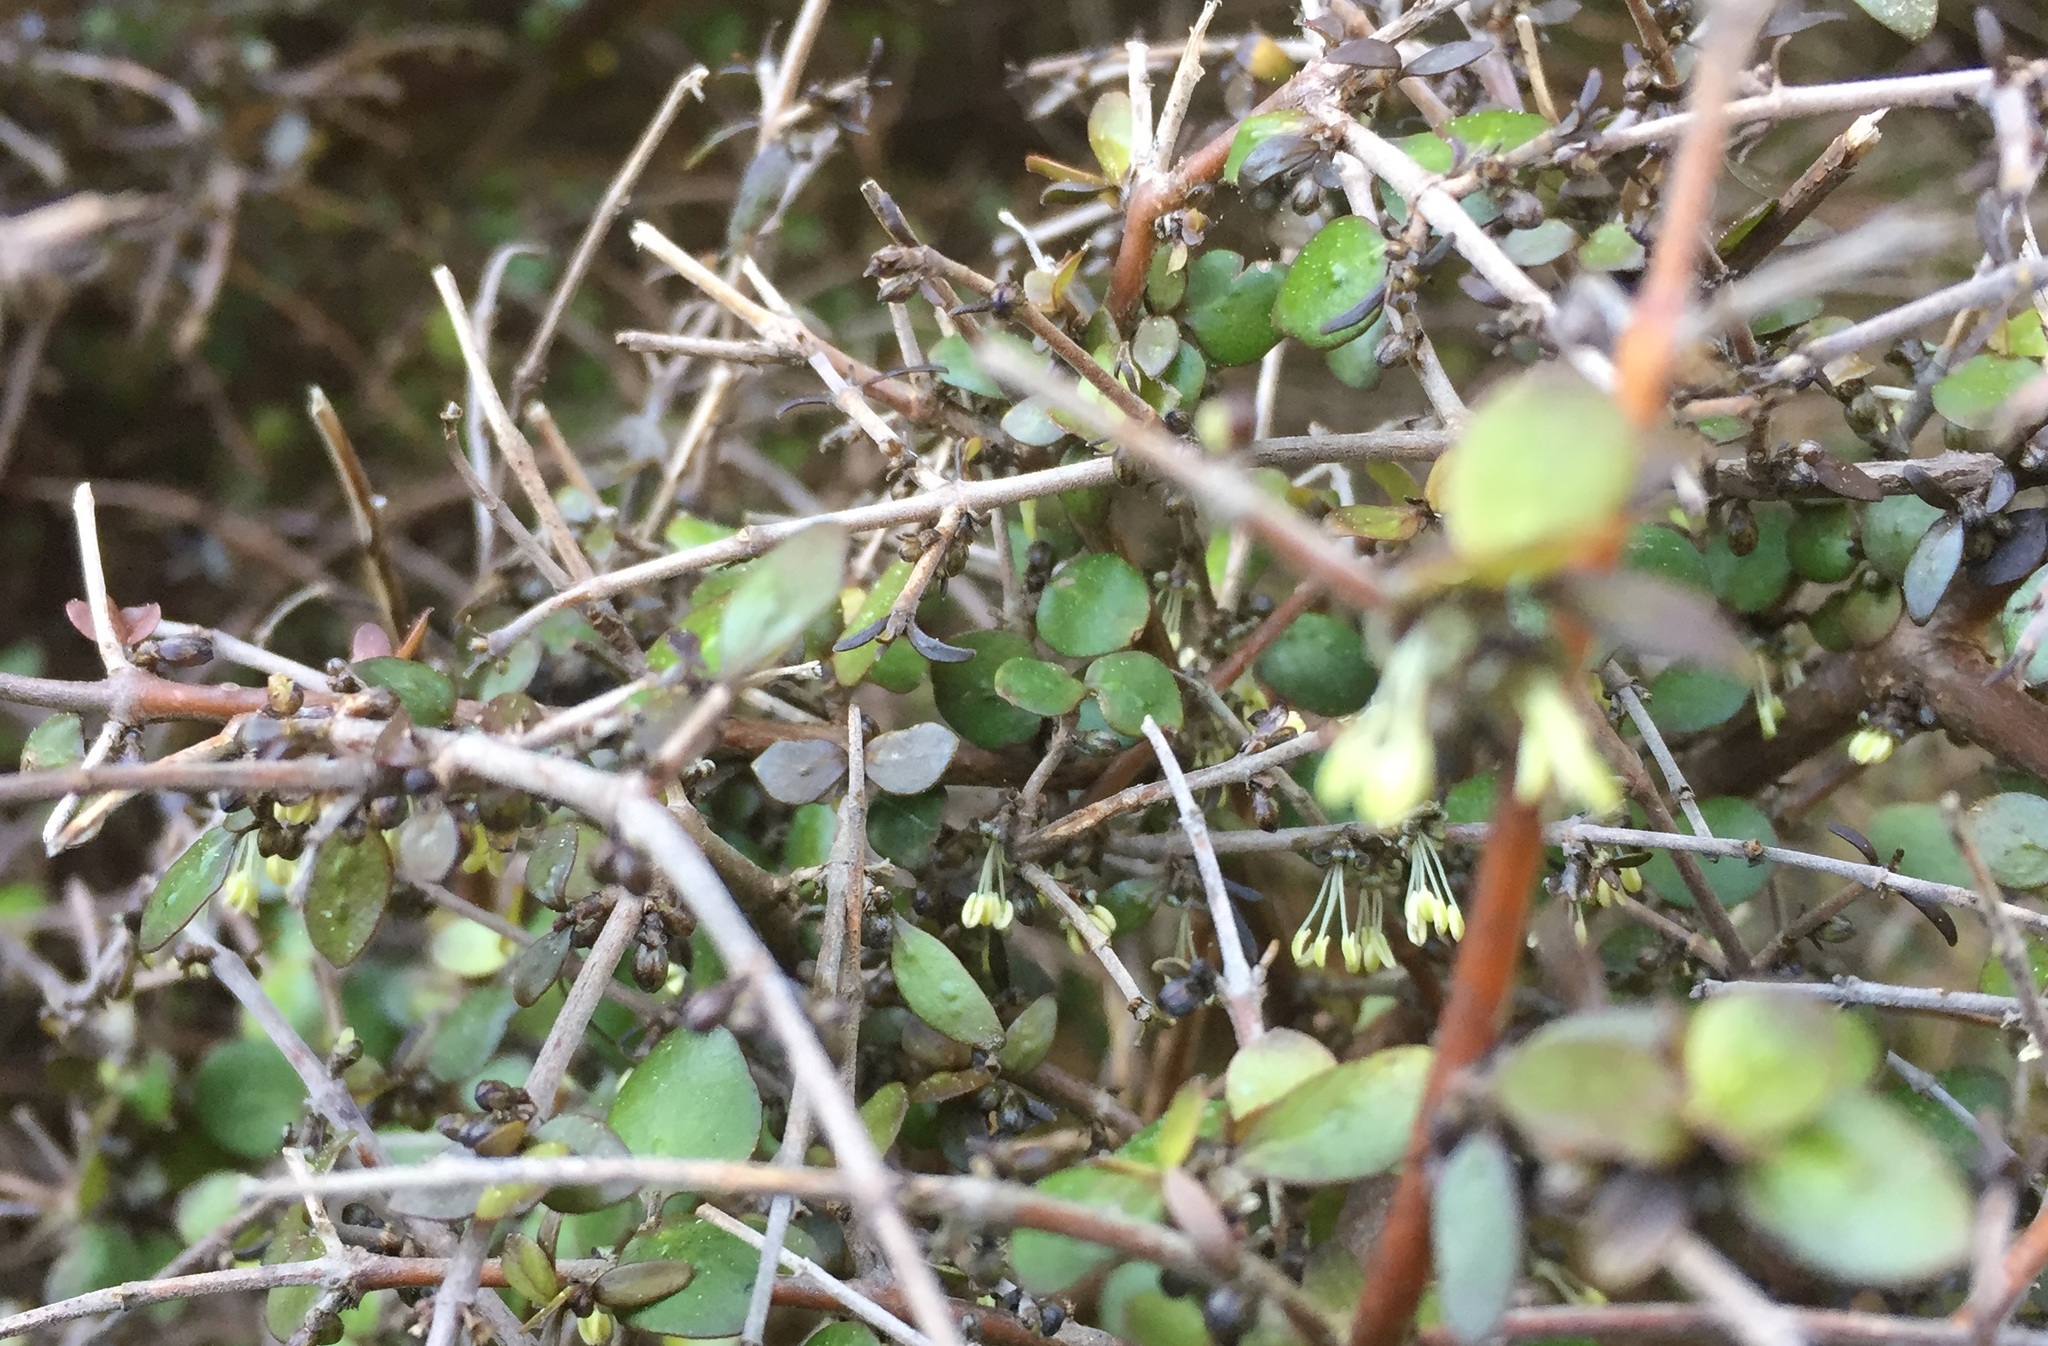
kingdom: Plantae
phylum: Tracheophyta
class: Magnoliopsida
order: Gentianales
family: Rubiaceae
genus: Coprosma
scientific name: Coprosma rhamnoides
